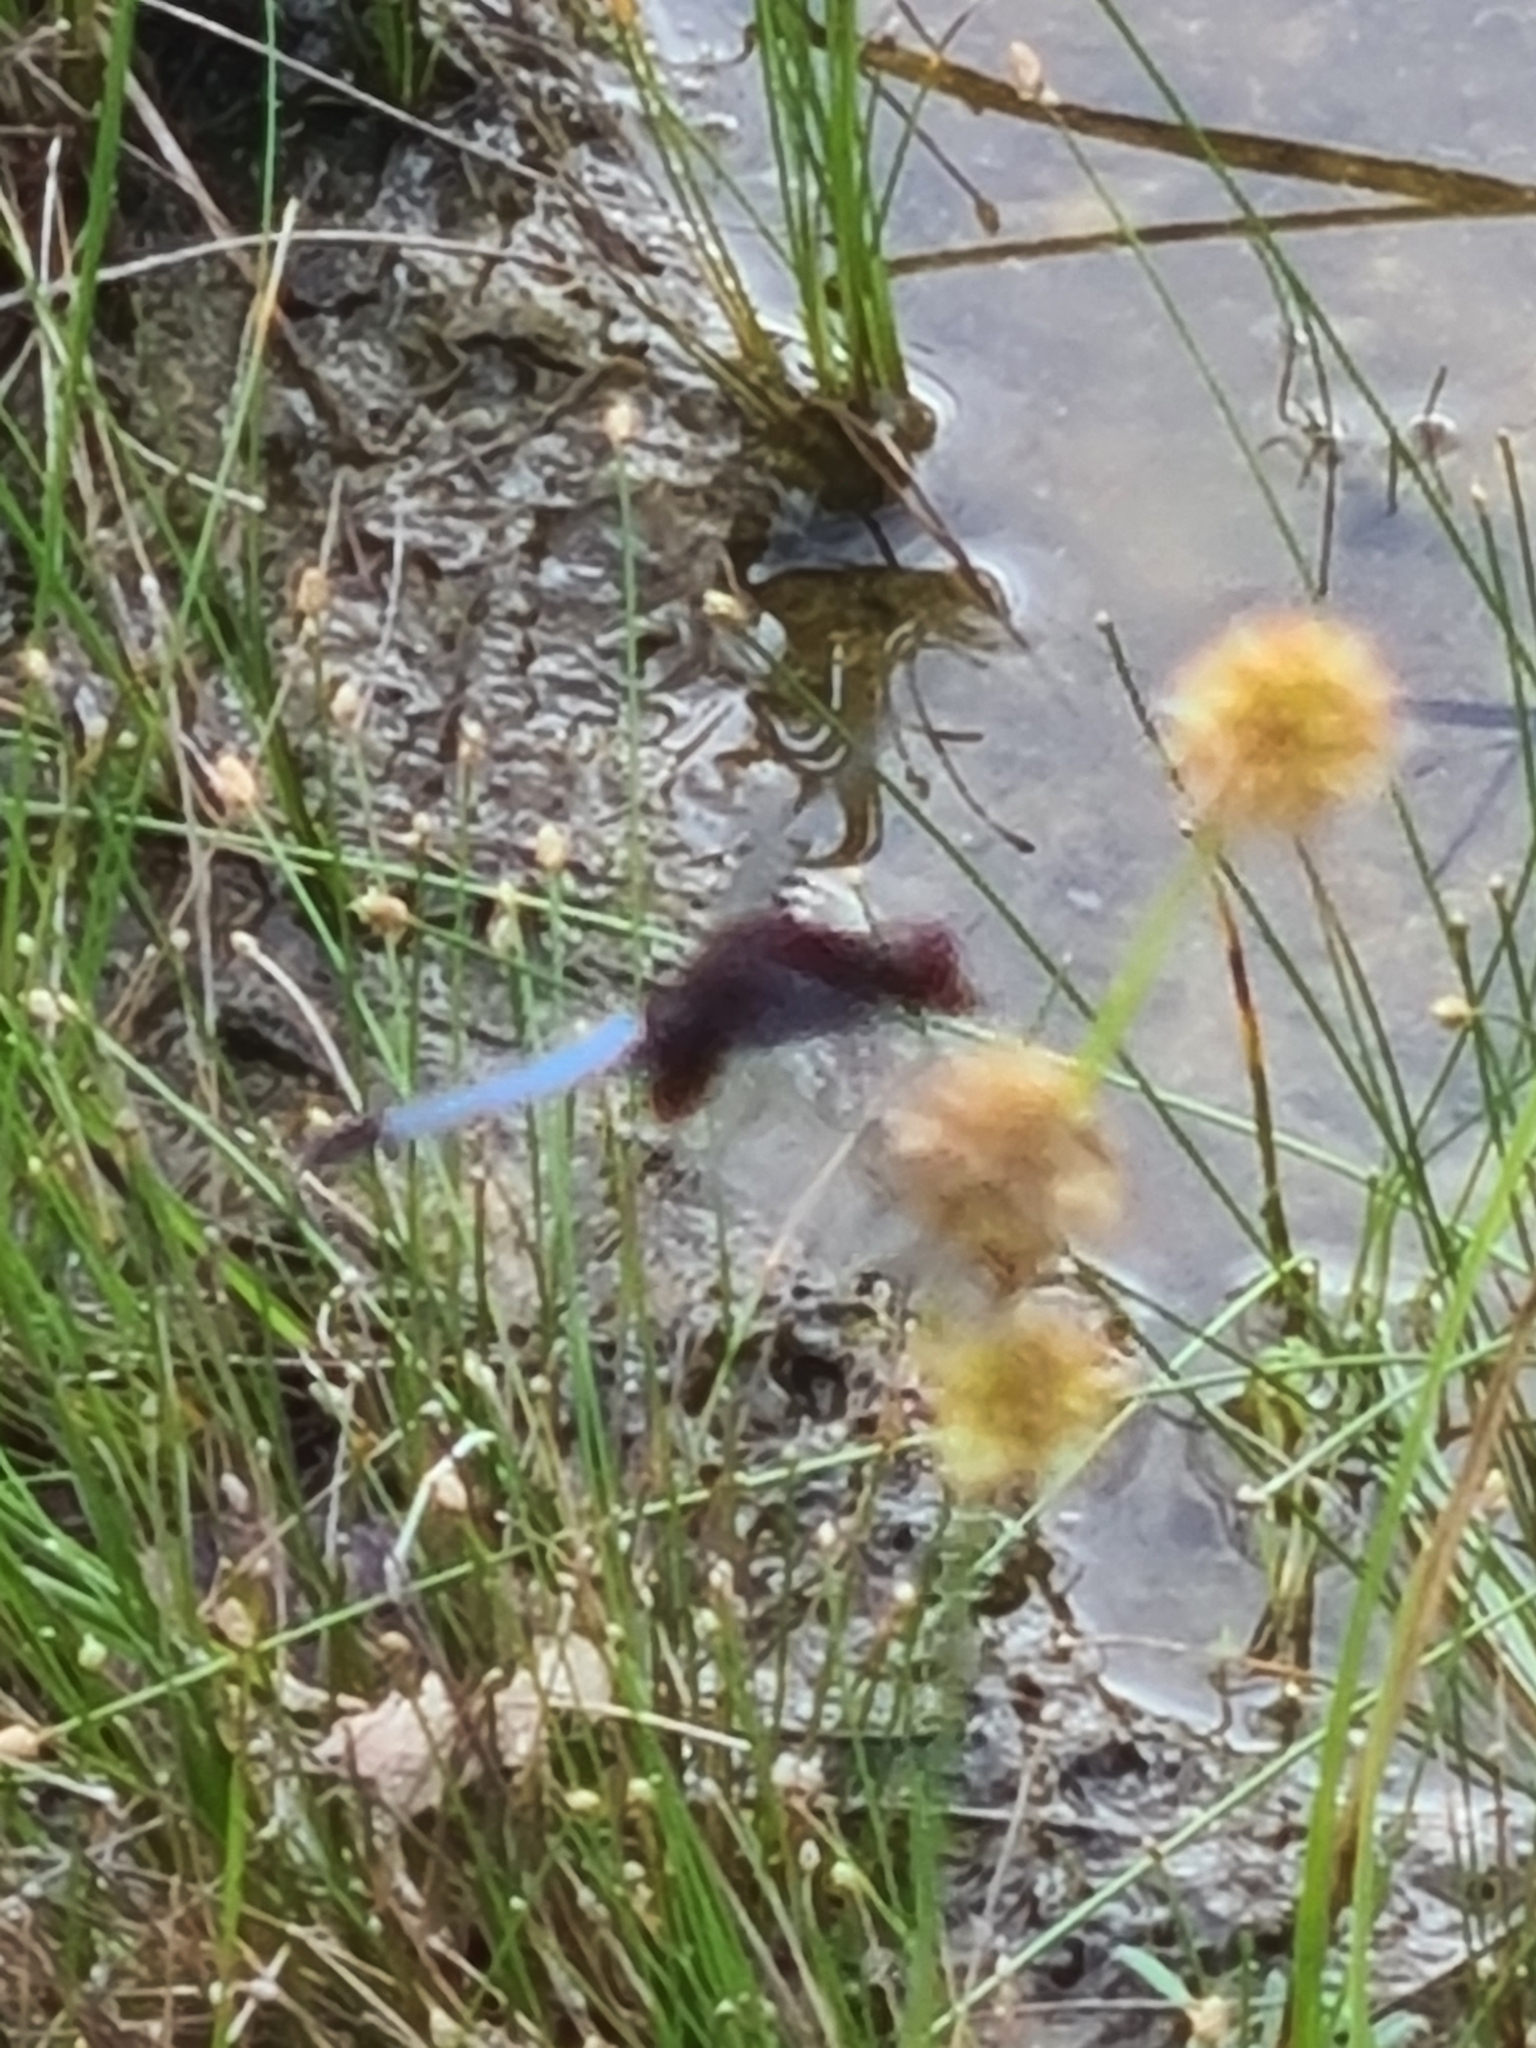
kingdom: Animalia
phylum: Arthropoda
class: Insecta
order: Odonata
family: Libellulidae
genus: Erythrodiplax
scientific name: Erythrodiplax fusca
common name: Red-faced dragonlet
